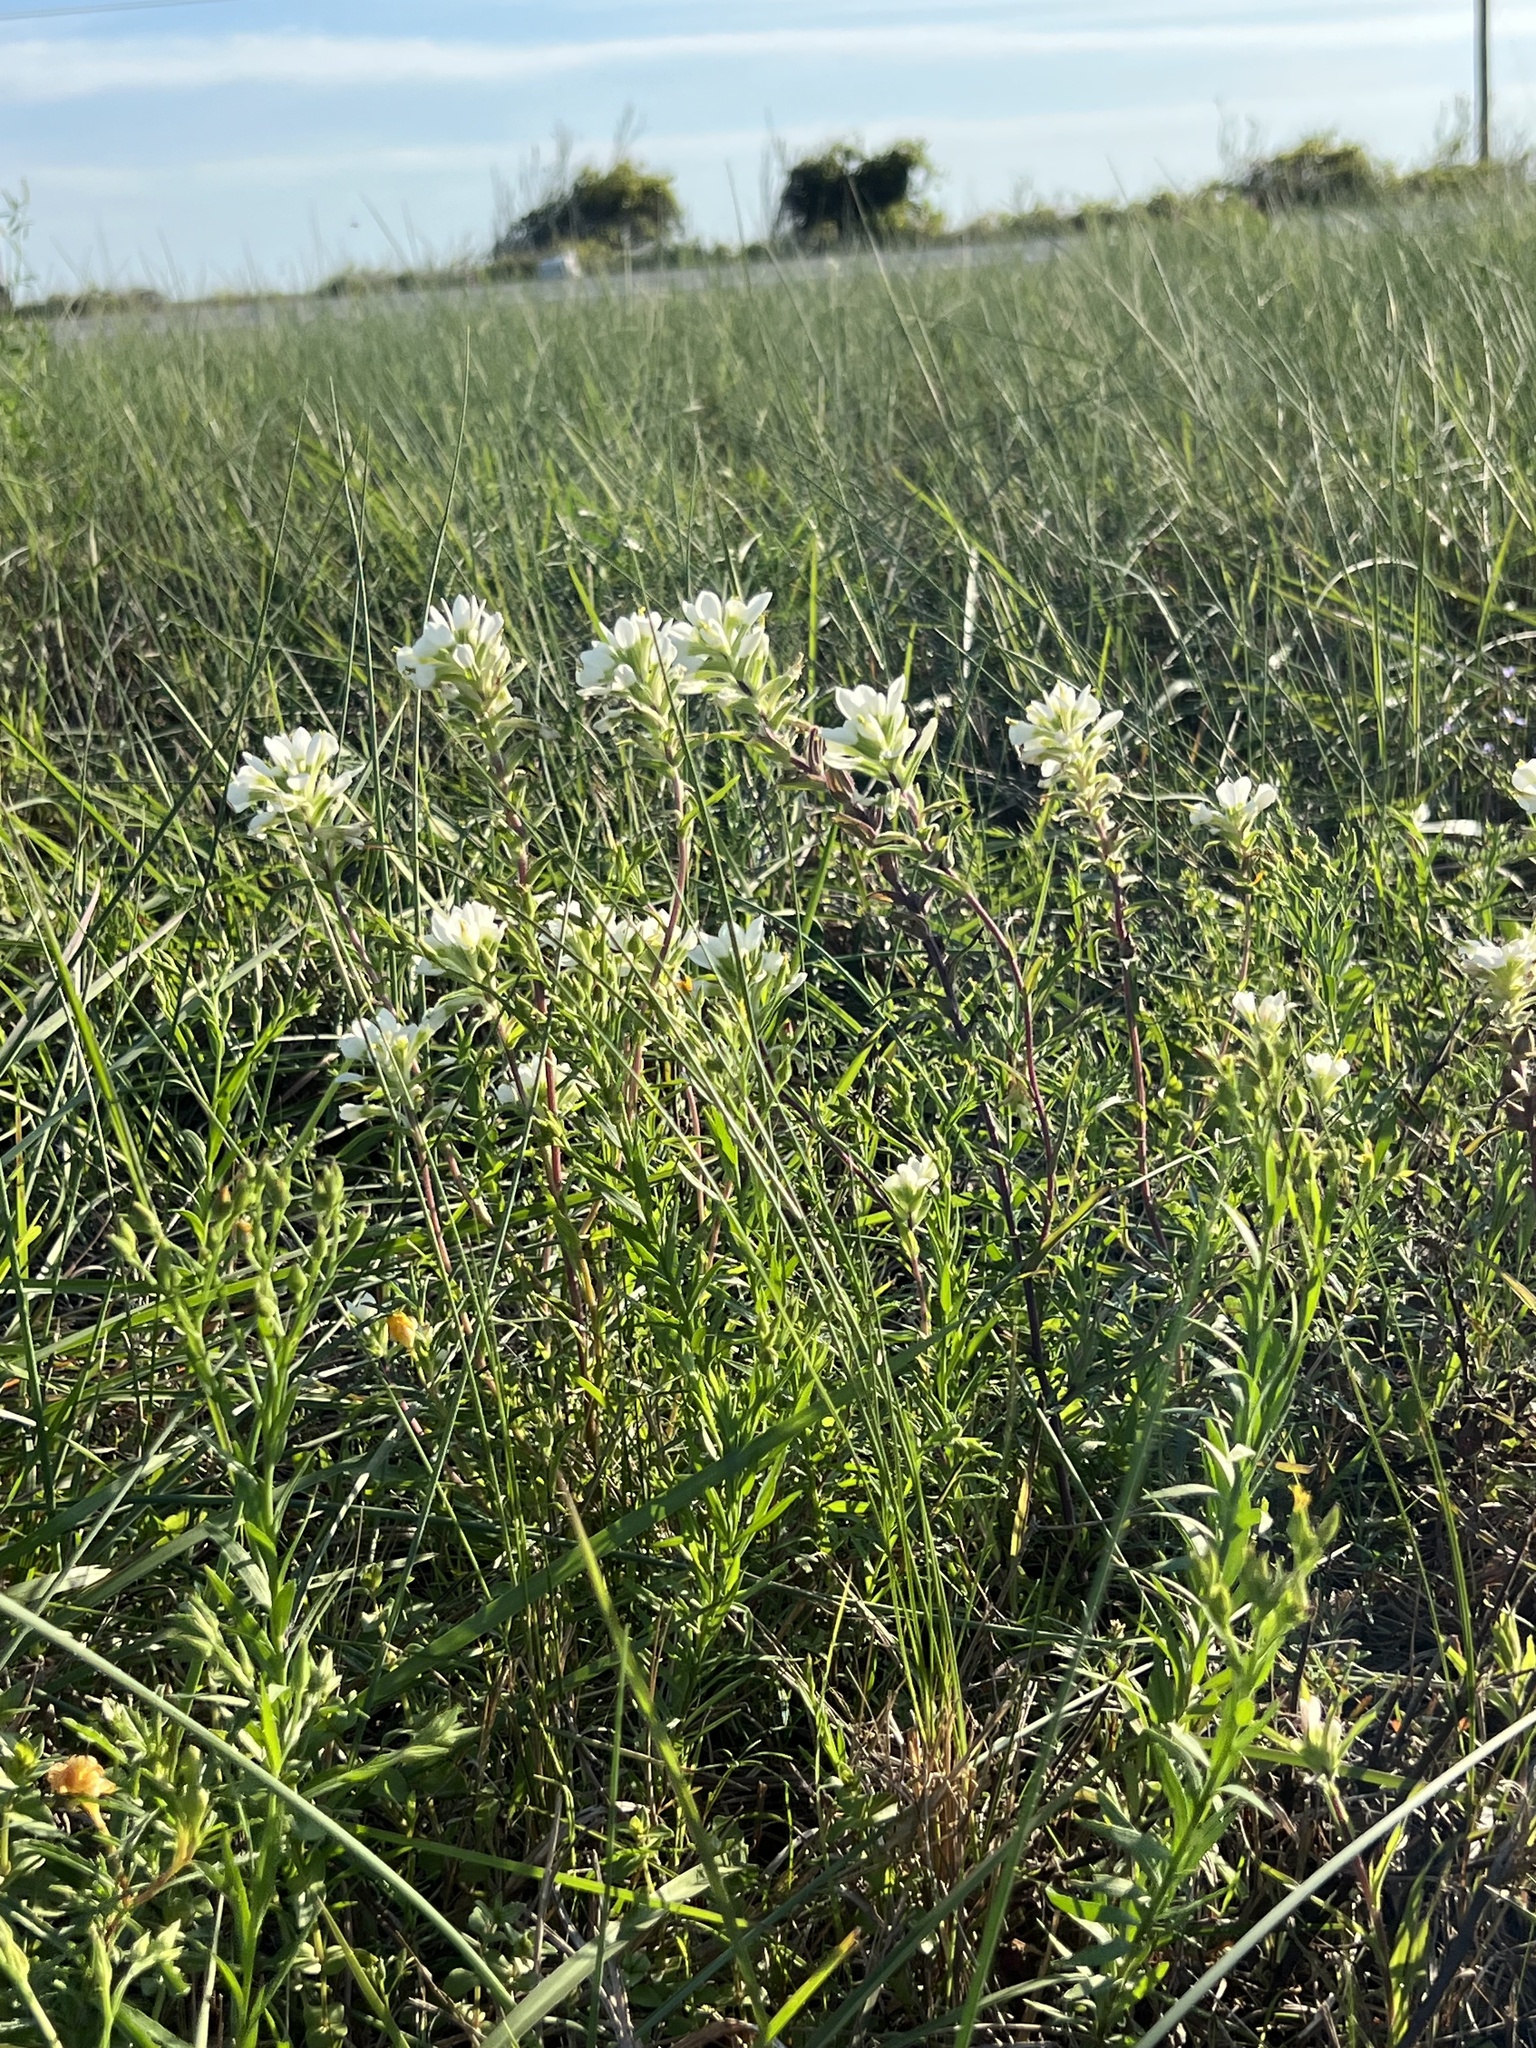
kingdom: Plantae
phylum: Tracheophyta
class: Magnoliopsida
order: Lamiales
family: Orobanchaceae
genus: Castilleja
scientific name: Castilleja halophila
